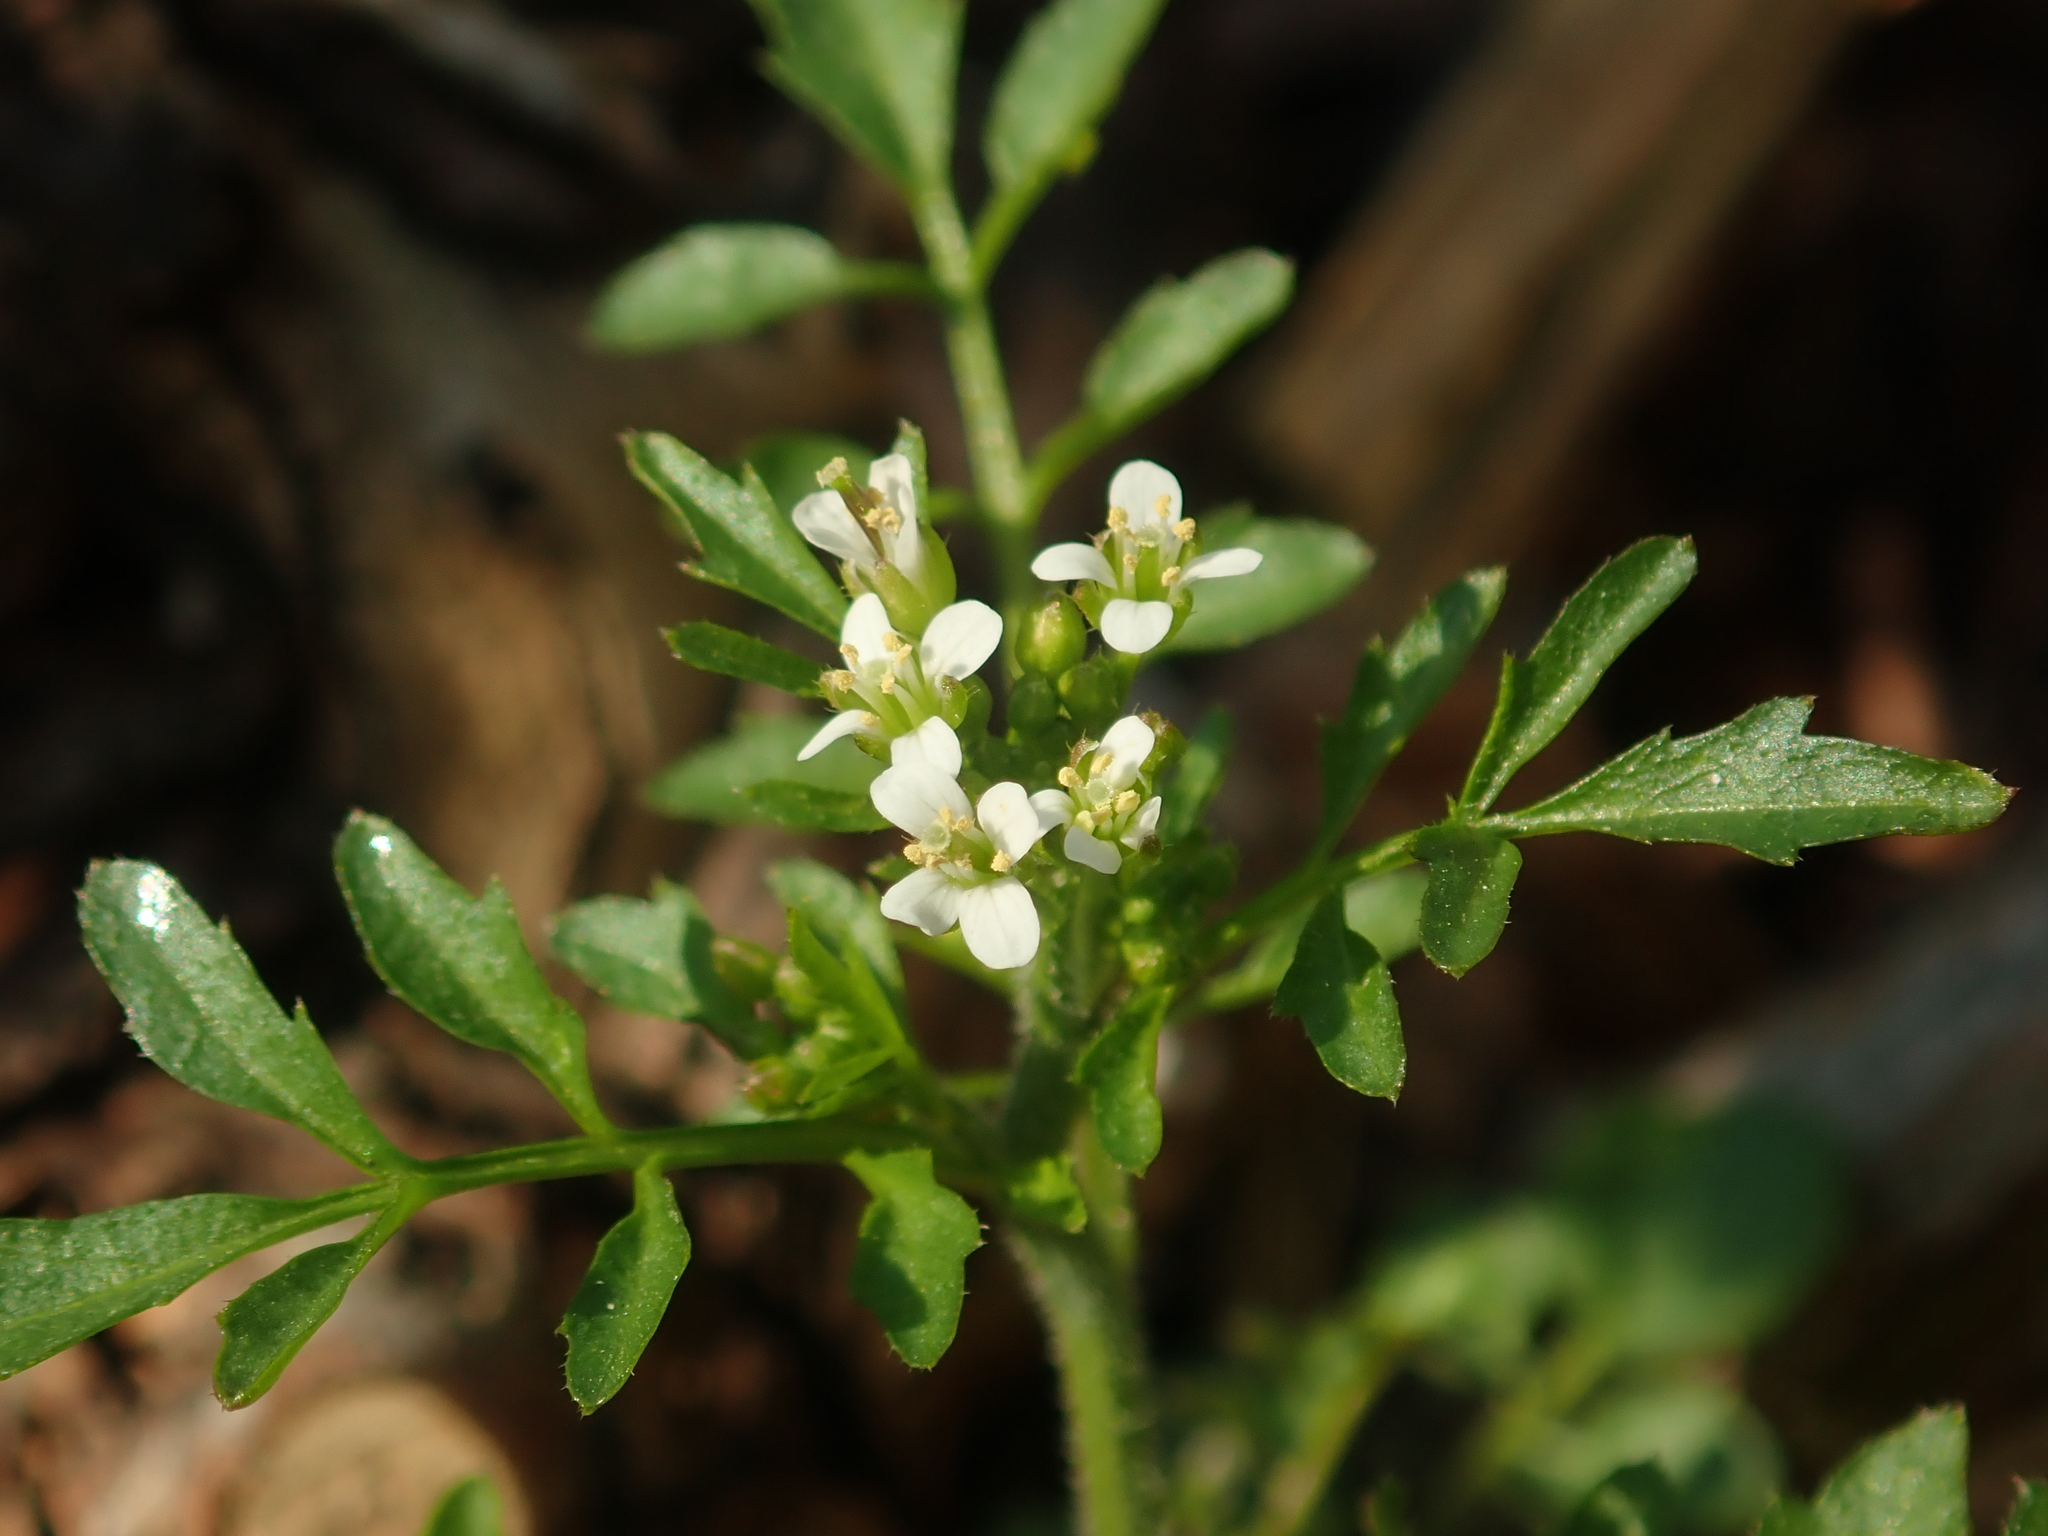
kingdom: Plantae
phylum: Tracheophyta
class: Magnoliopsida
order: Brassicales
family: Brassicaceae
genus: Cardamine
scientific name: Cardamine flexuosa
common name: Woodland bittercress
